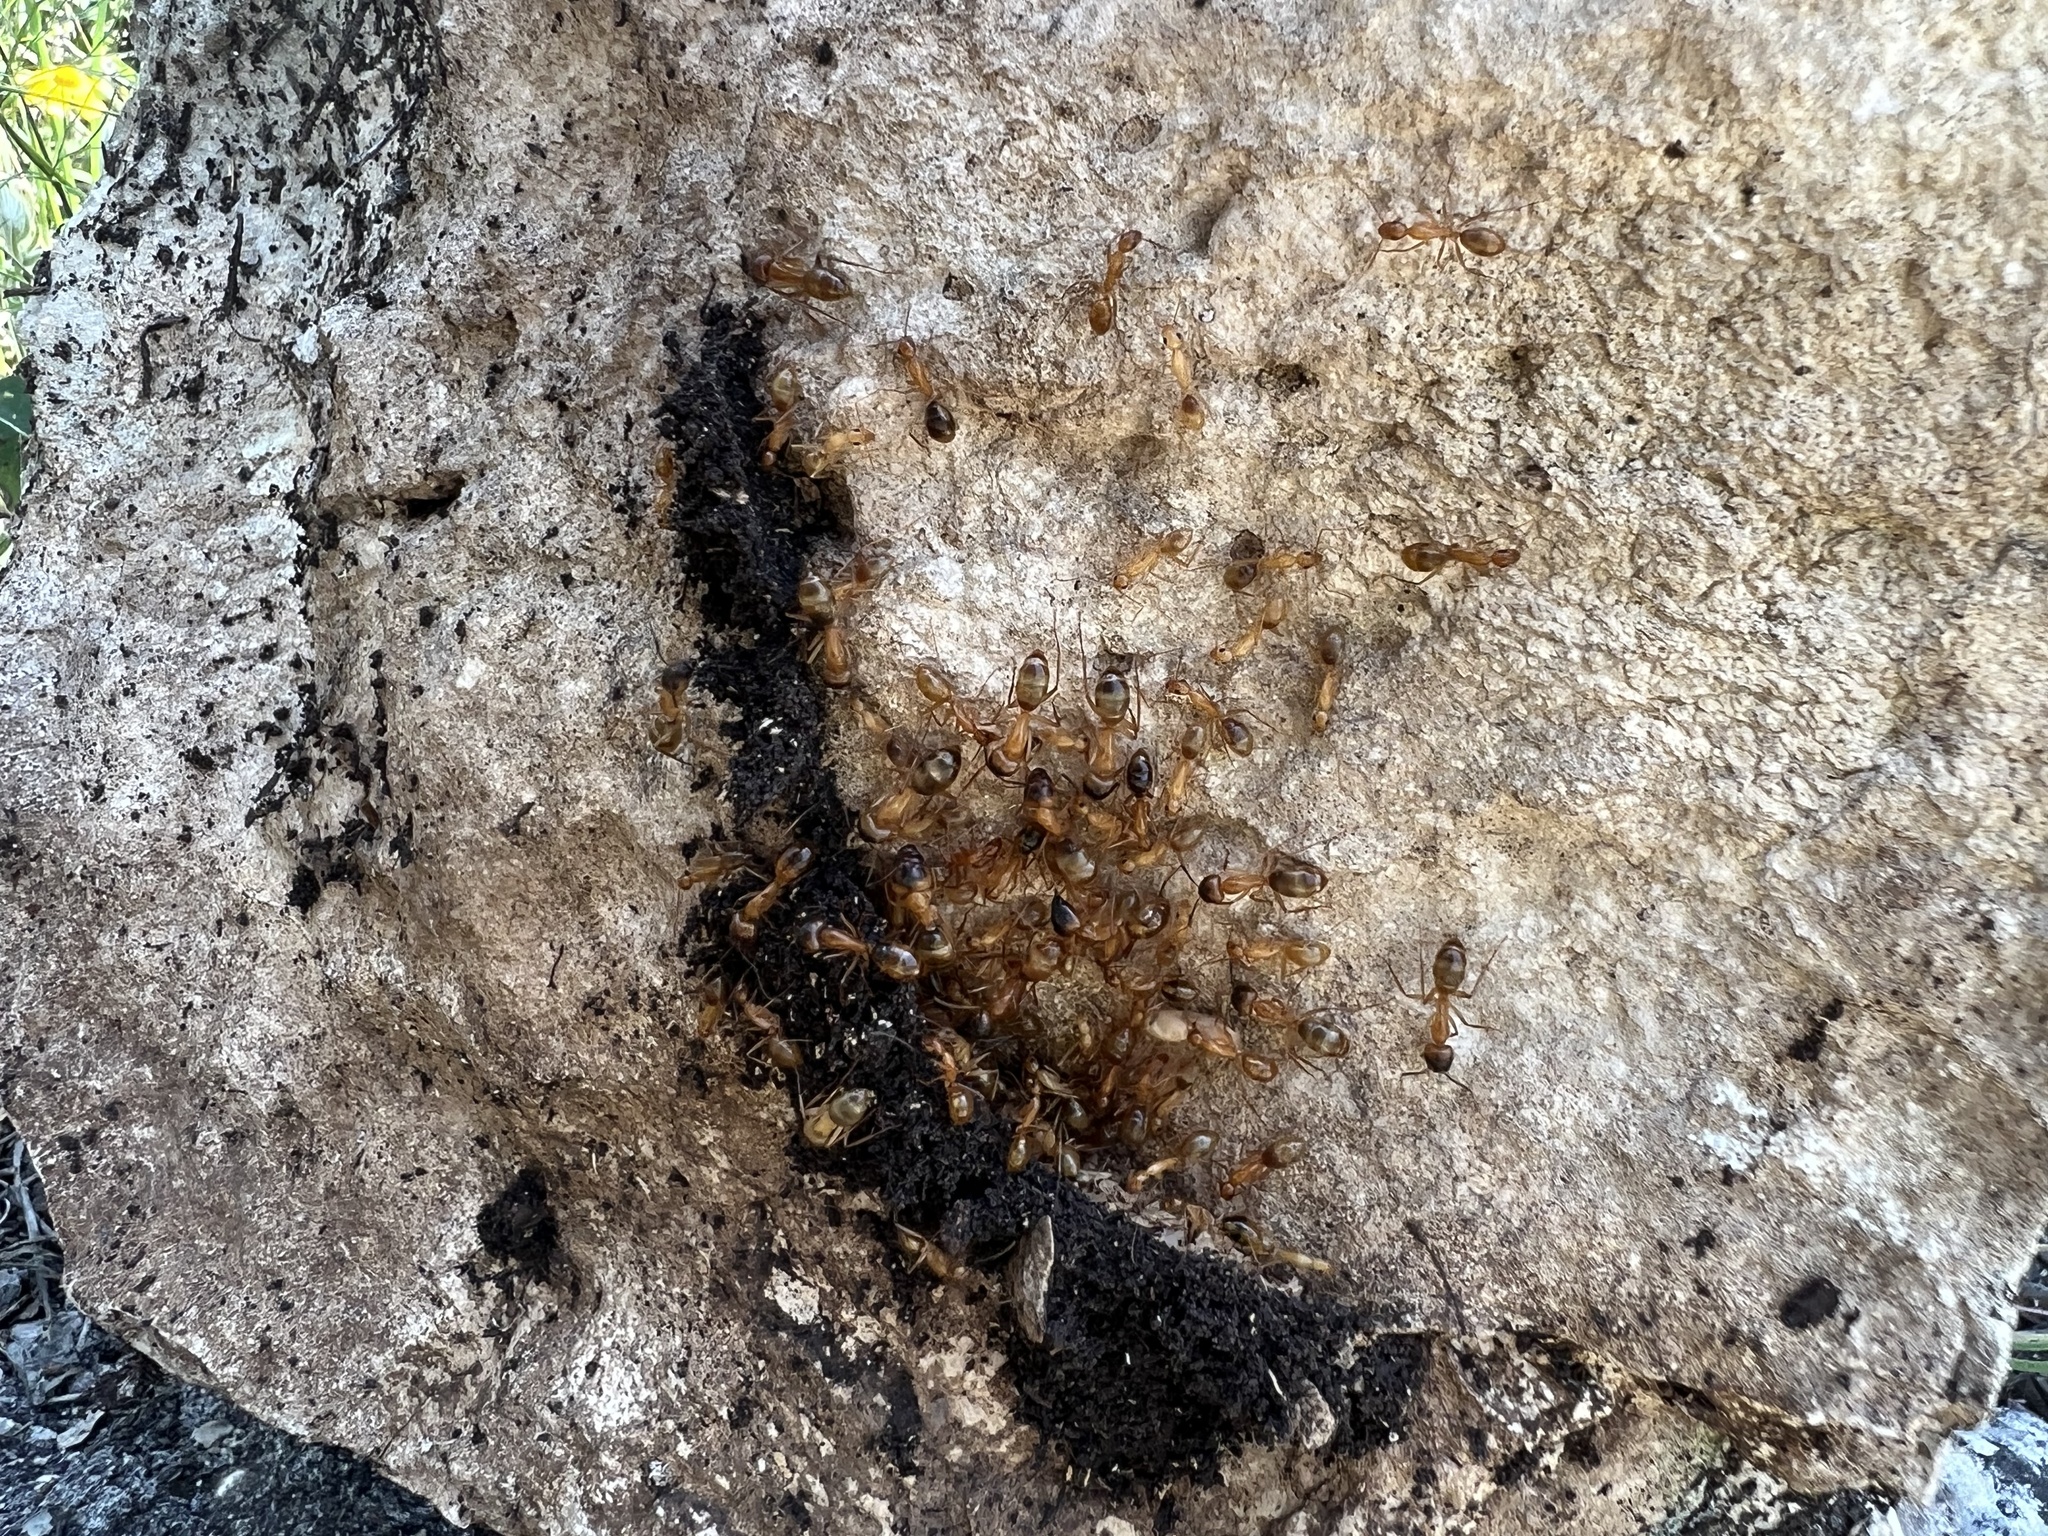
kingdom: Animalia
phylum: Arthropoda
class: Insecta
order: Hymenoptera
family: Formicidae
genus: Camponotus
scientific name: Camponotus festinatus
